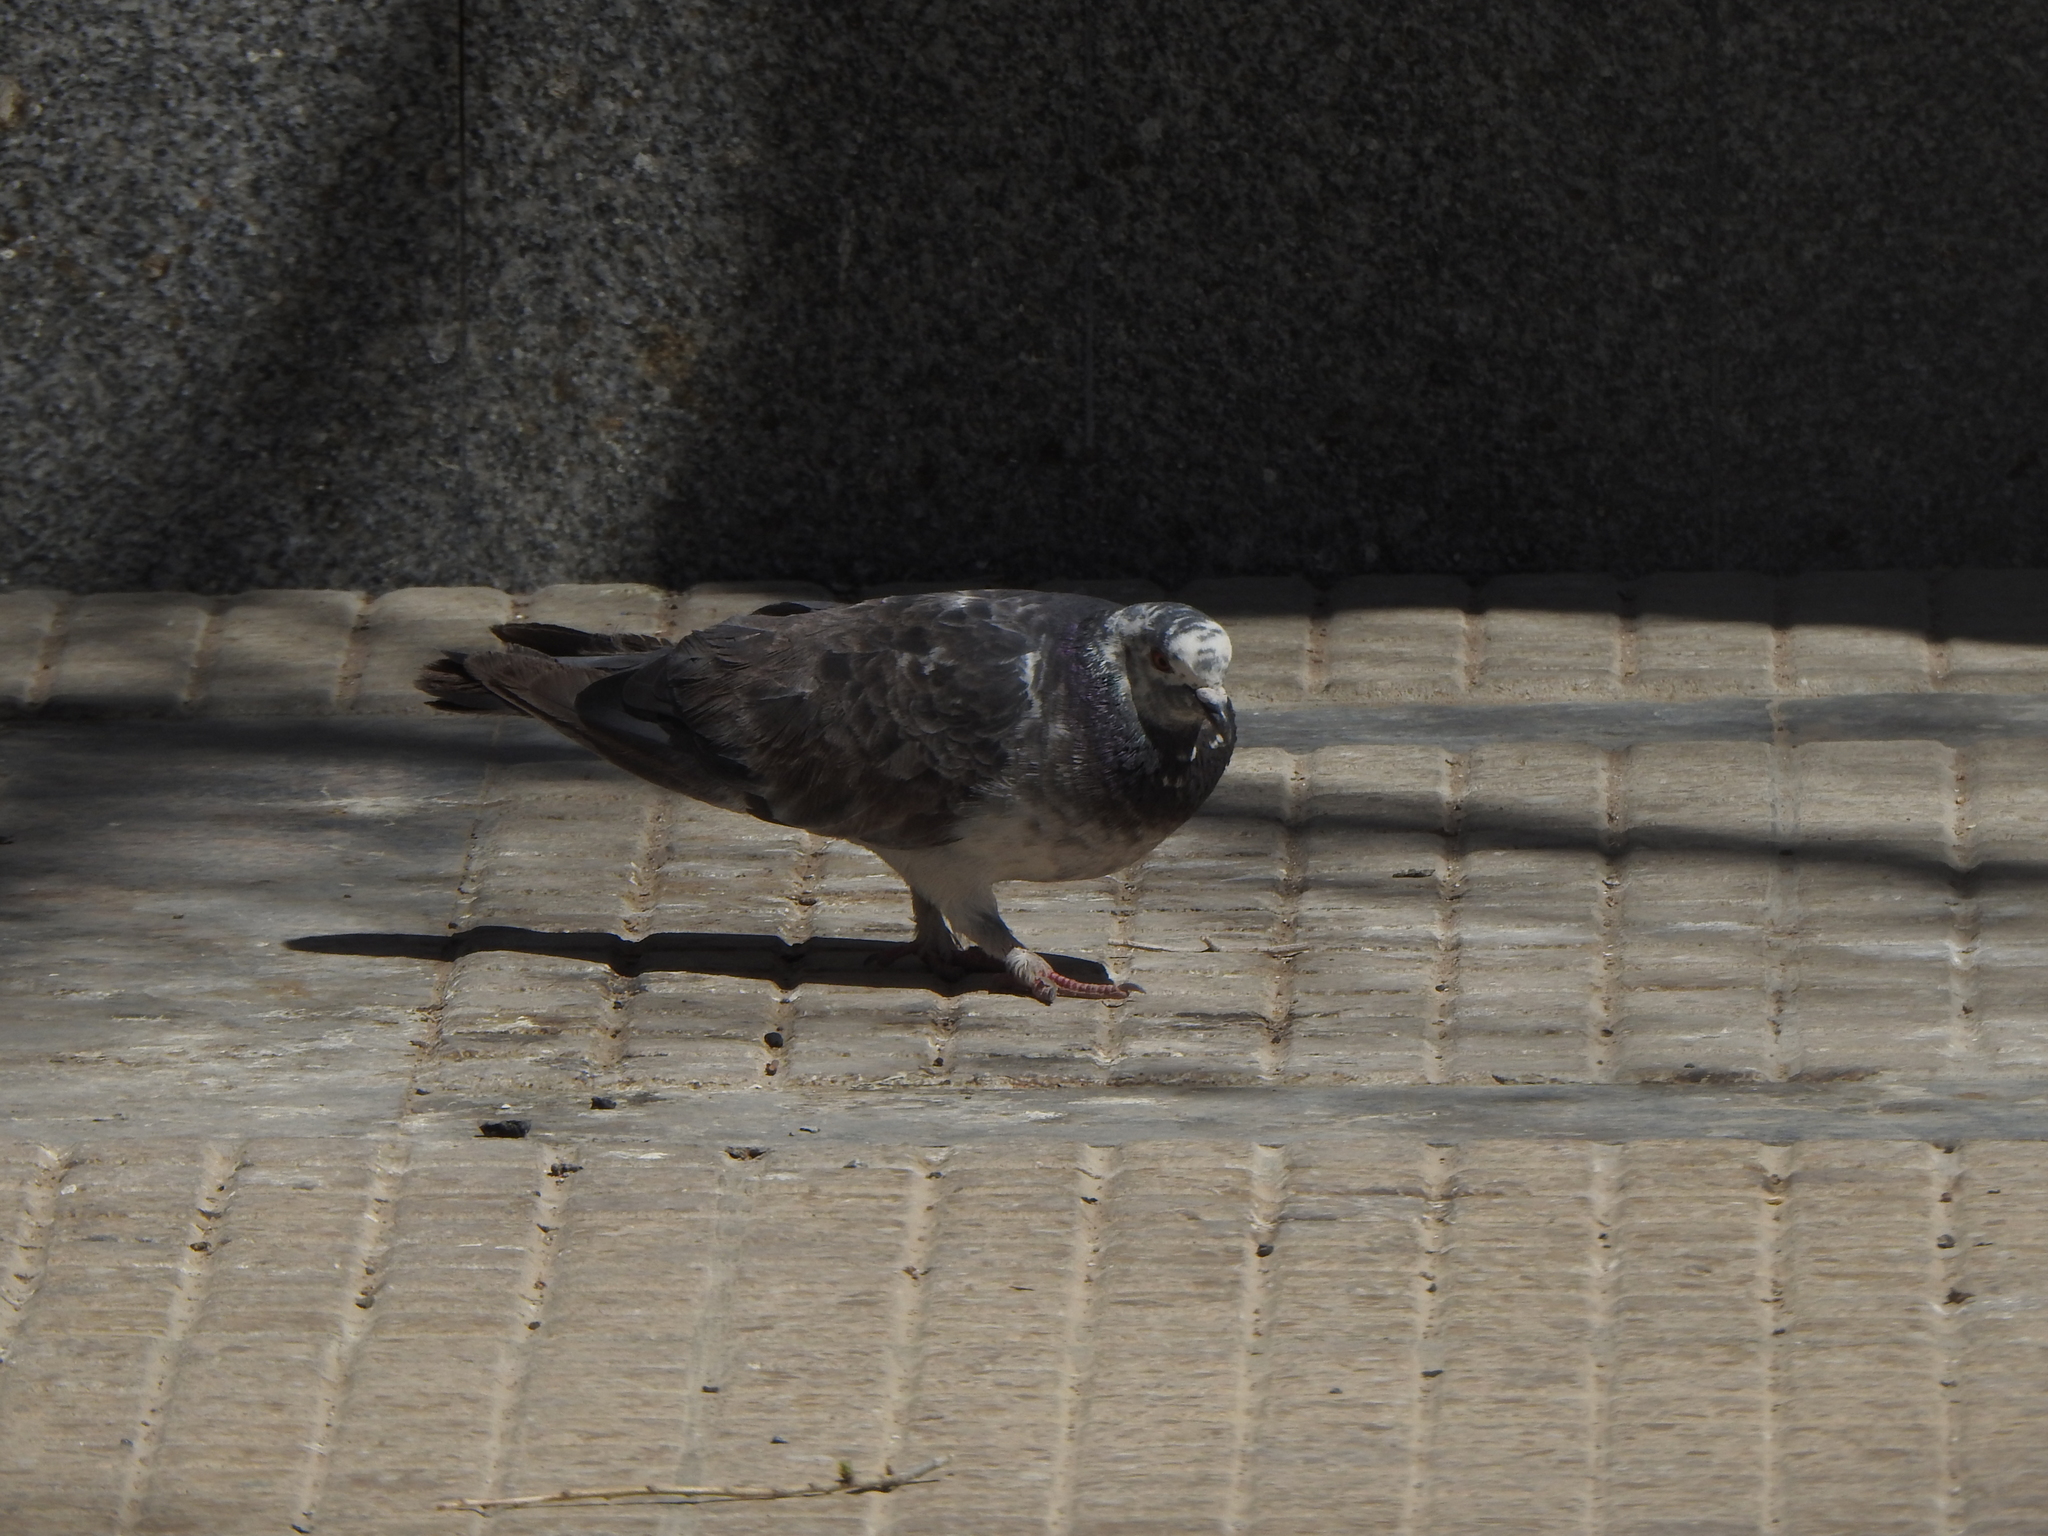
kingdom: Animalia
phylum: Chordata
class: Aves
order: Columbiformes
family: Columbidae
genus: Columba
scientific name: Columba livia
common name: Rock pigeon
